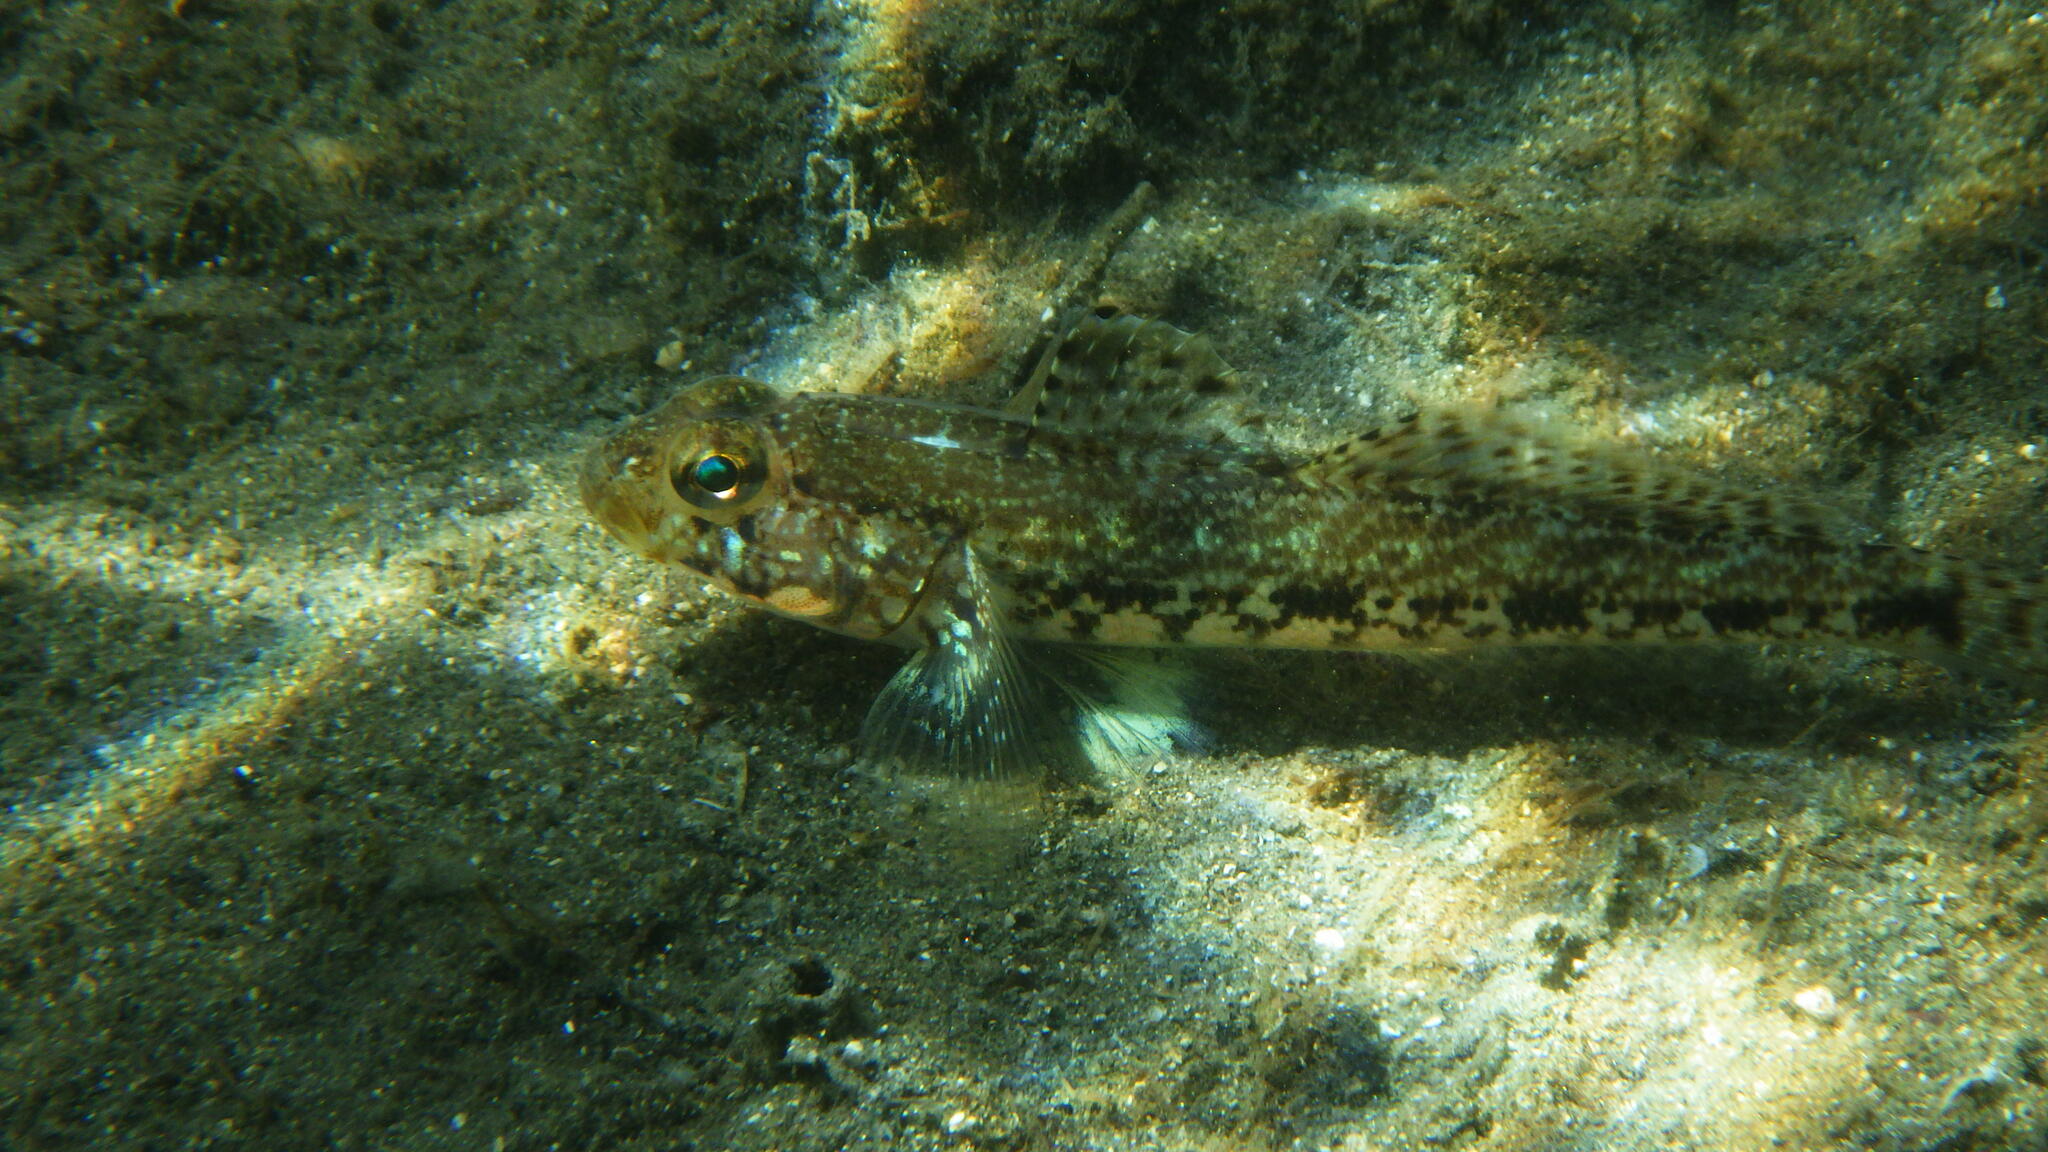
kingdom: Animalia
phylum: Chordata
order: Perciformes
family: Gobiidae
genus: Gobius
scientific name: Gobius geniporus
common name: Slender goby
